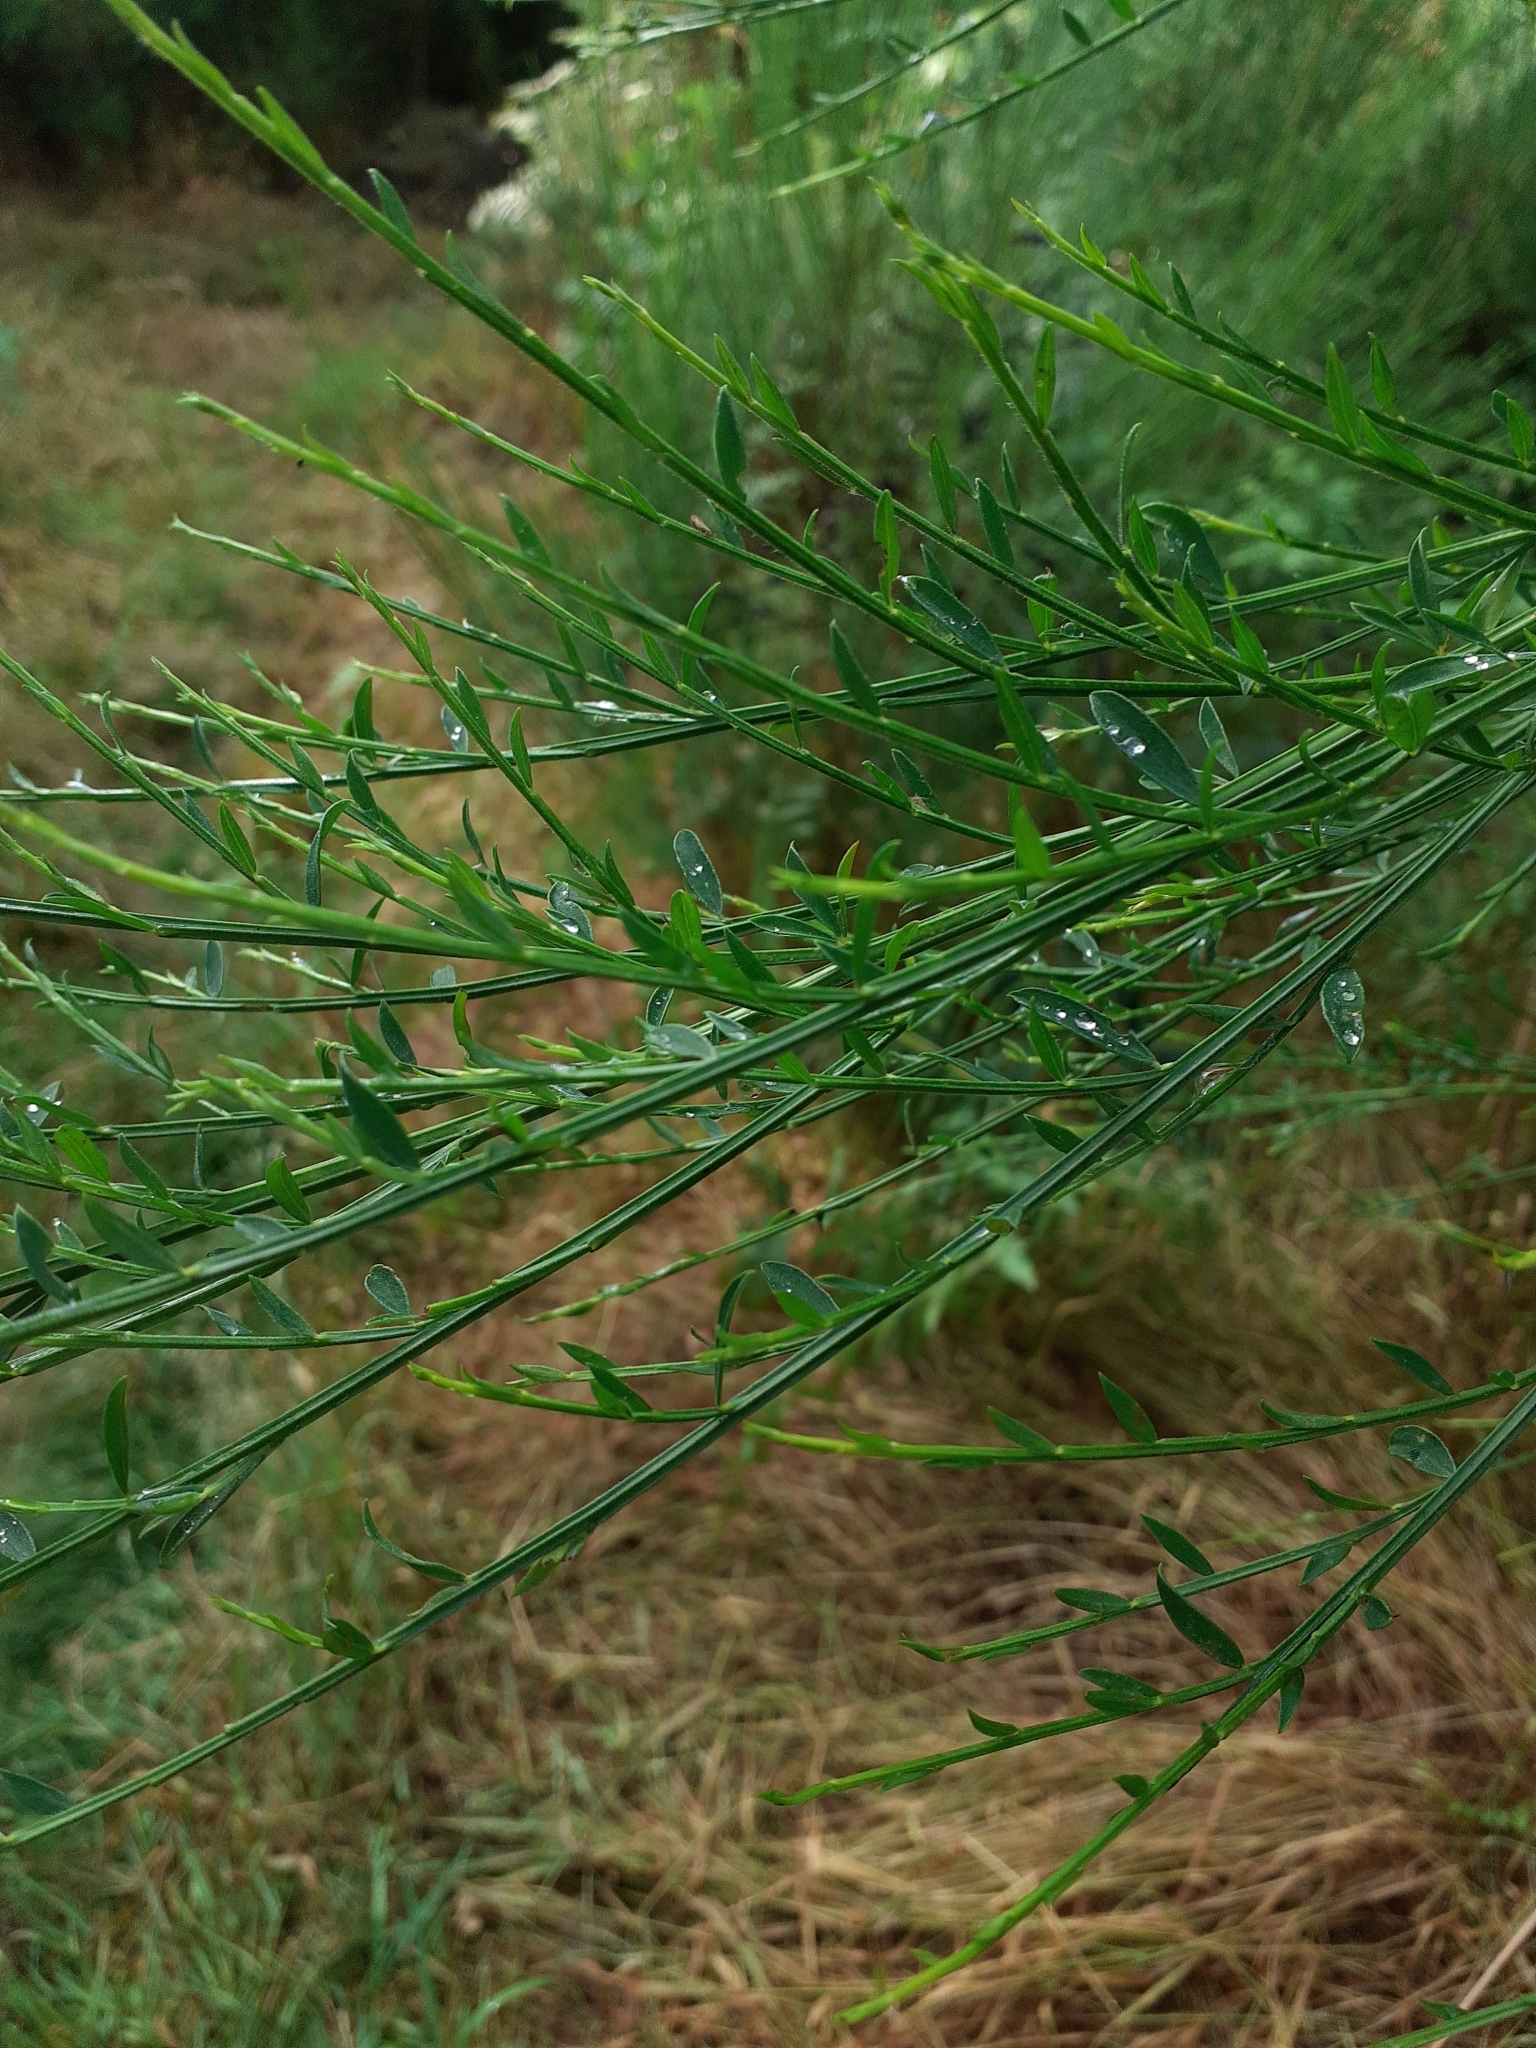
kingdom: Plantae
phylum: Tracheophyta
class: Magnoliopsida
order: Fabales
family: Fabaceae
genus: Cytisus
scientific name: Cytisus scoparius
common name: Scotch broom
